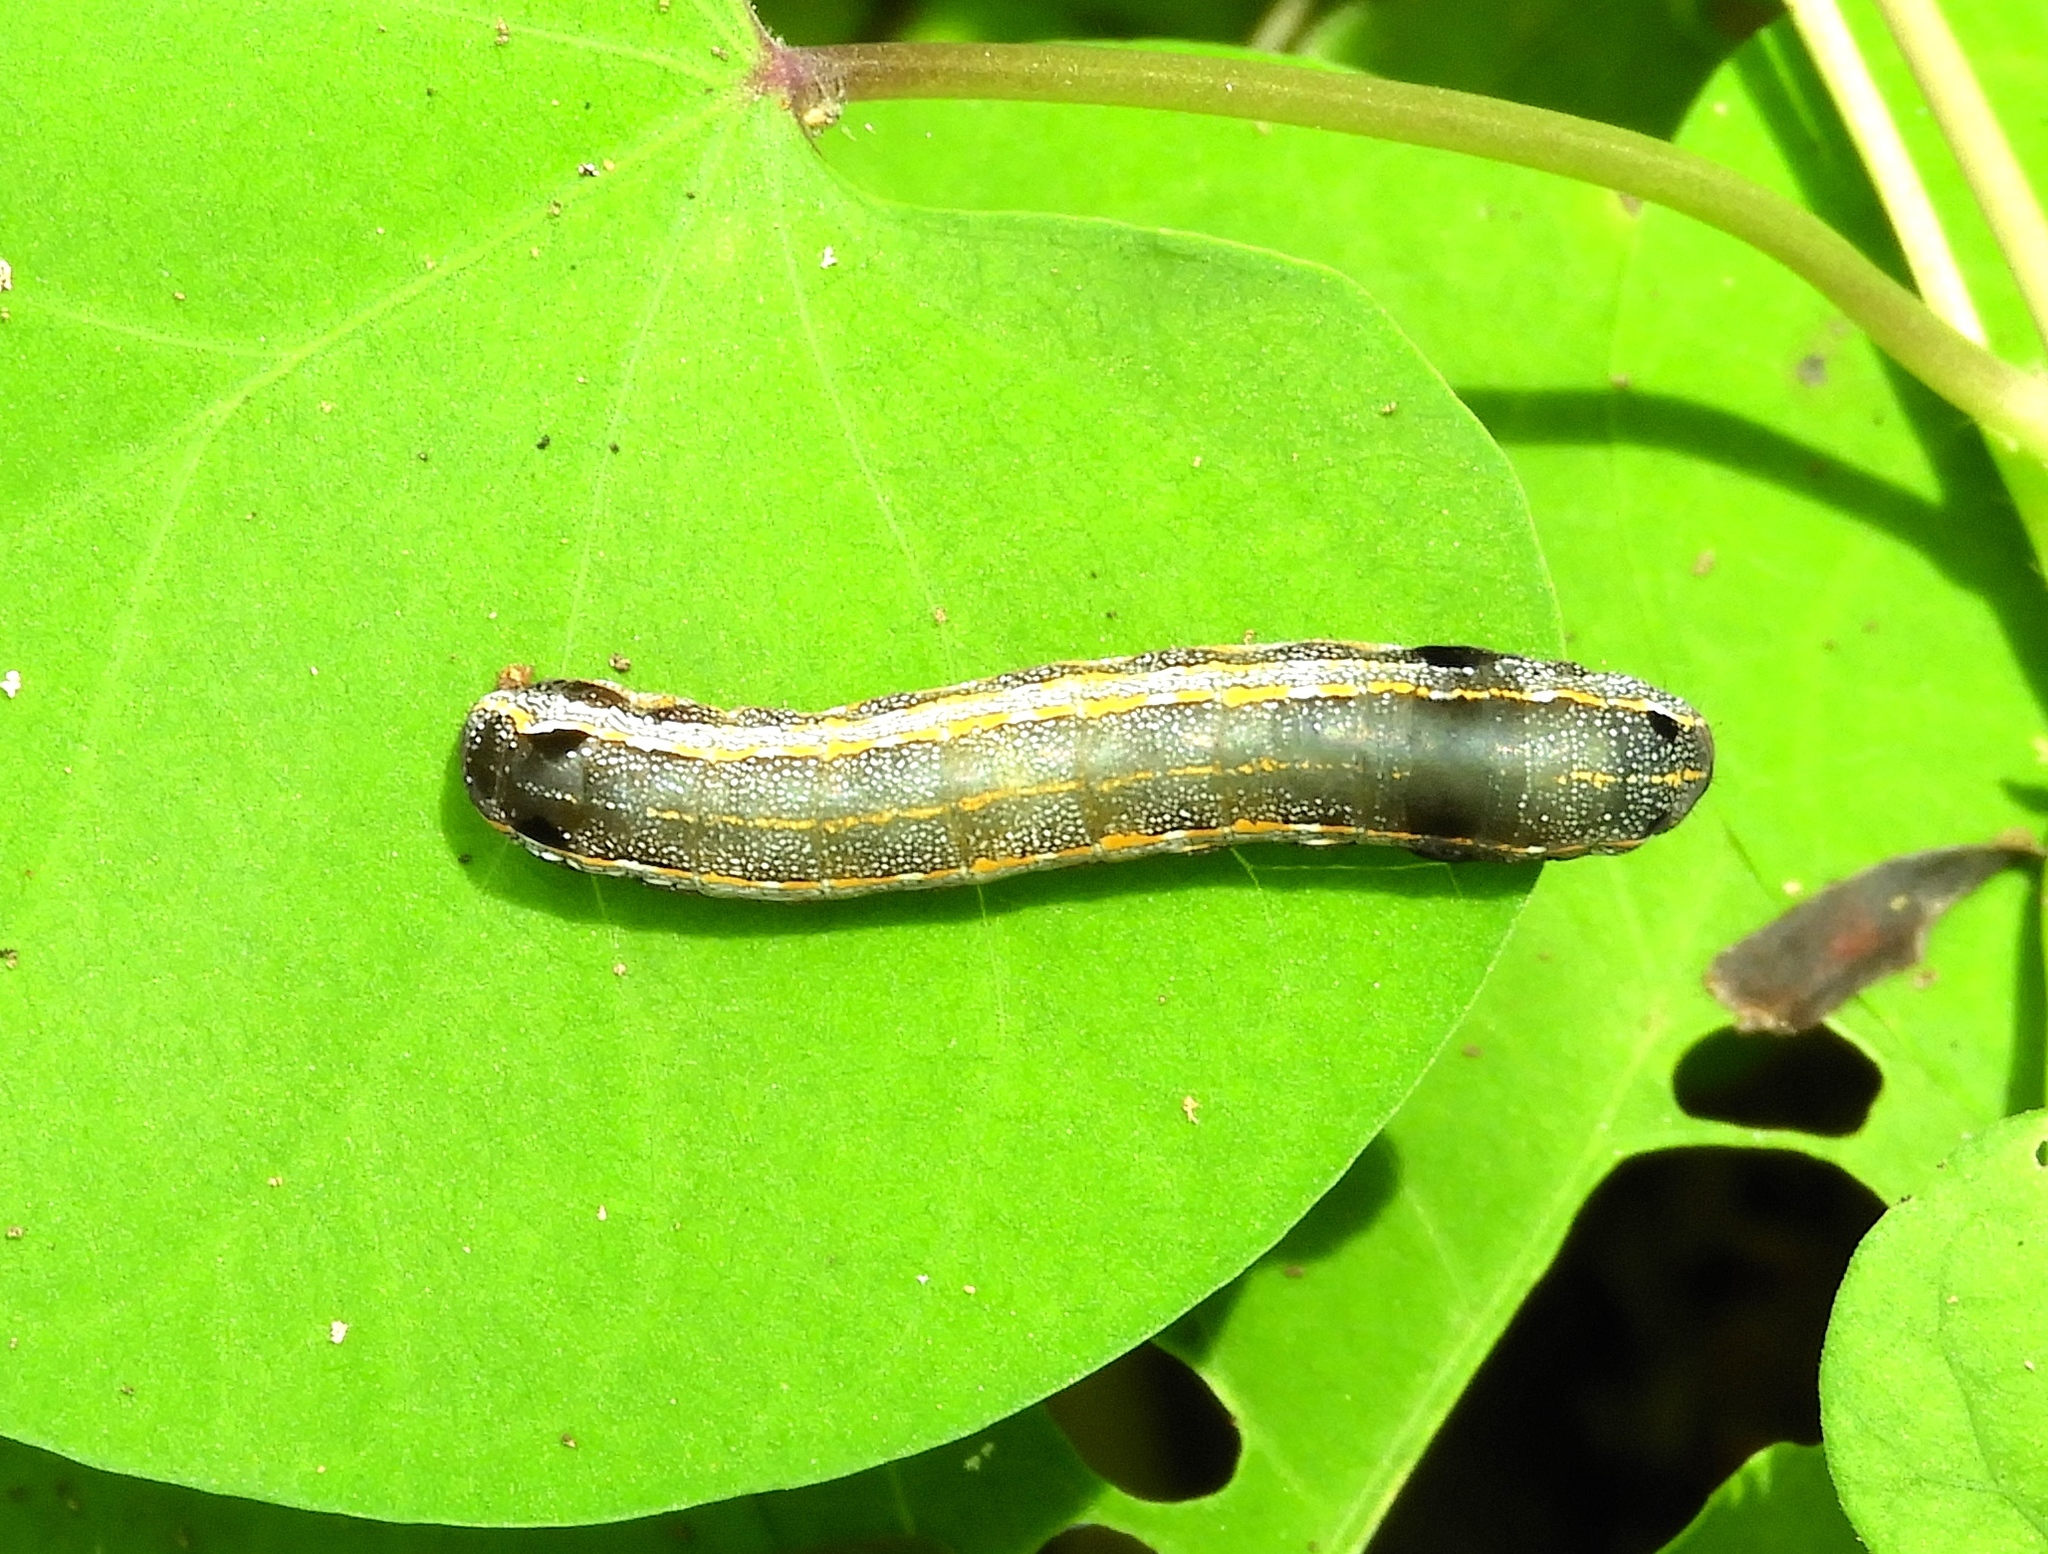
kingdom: Animalia
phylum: Arthropoda
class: Insecta
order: Lepidoptera
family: Noctuidae
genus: Spodoptera
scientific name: Spodoptera
